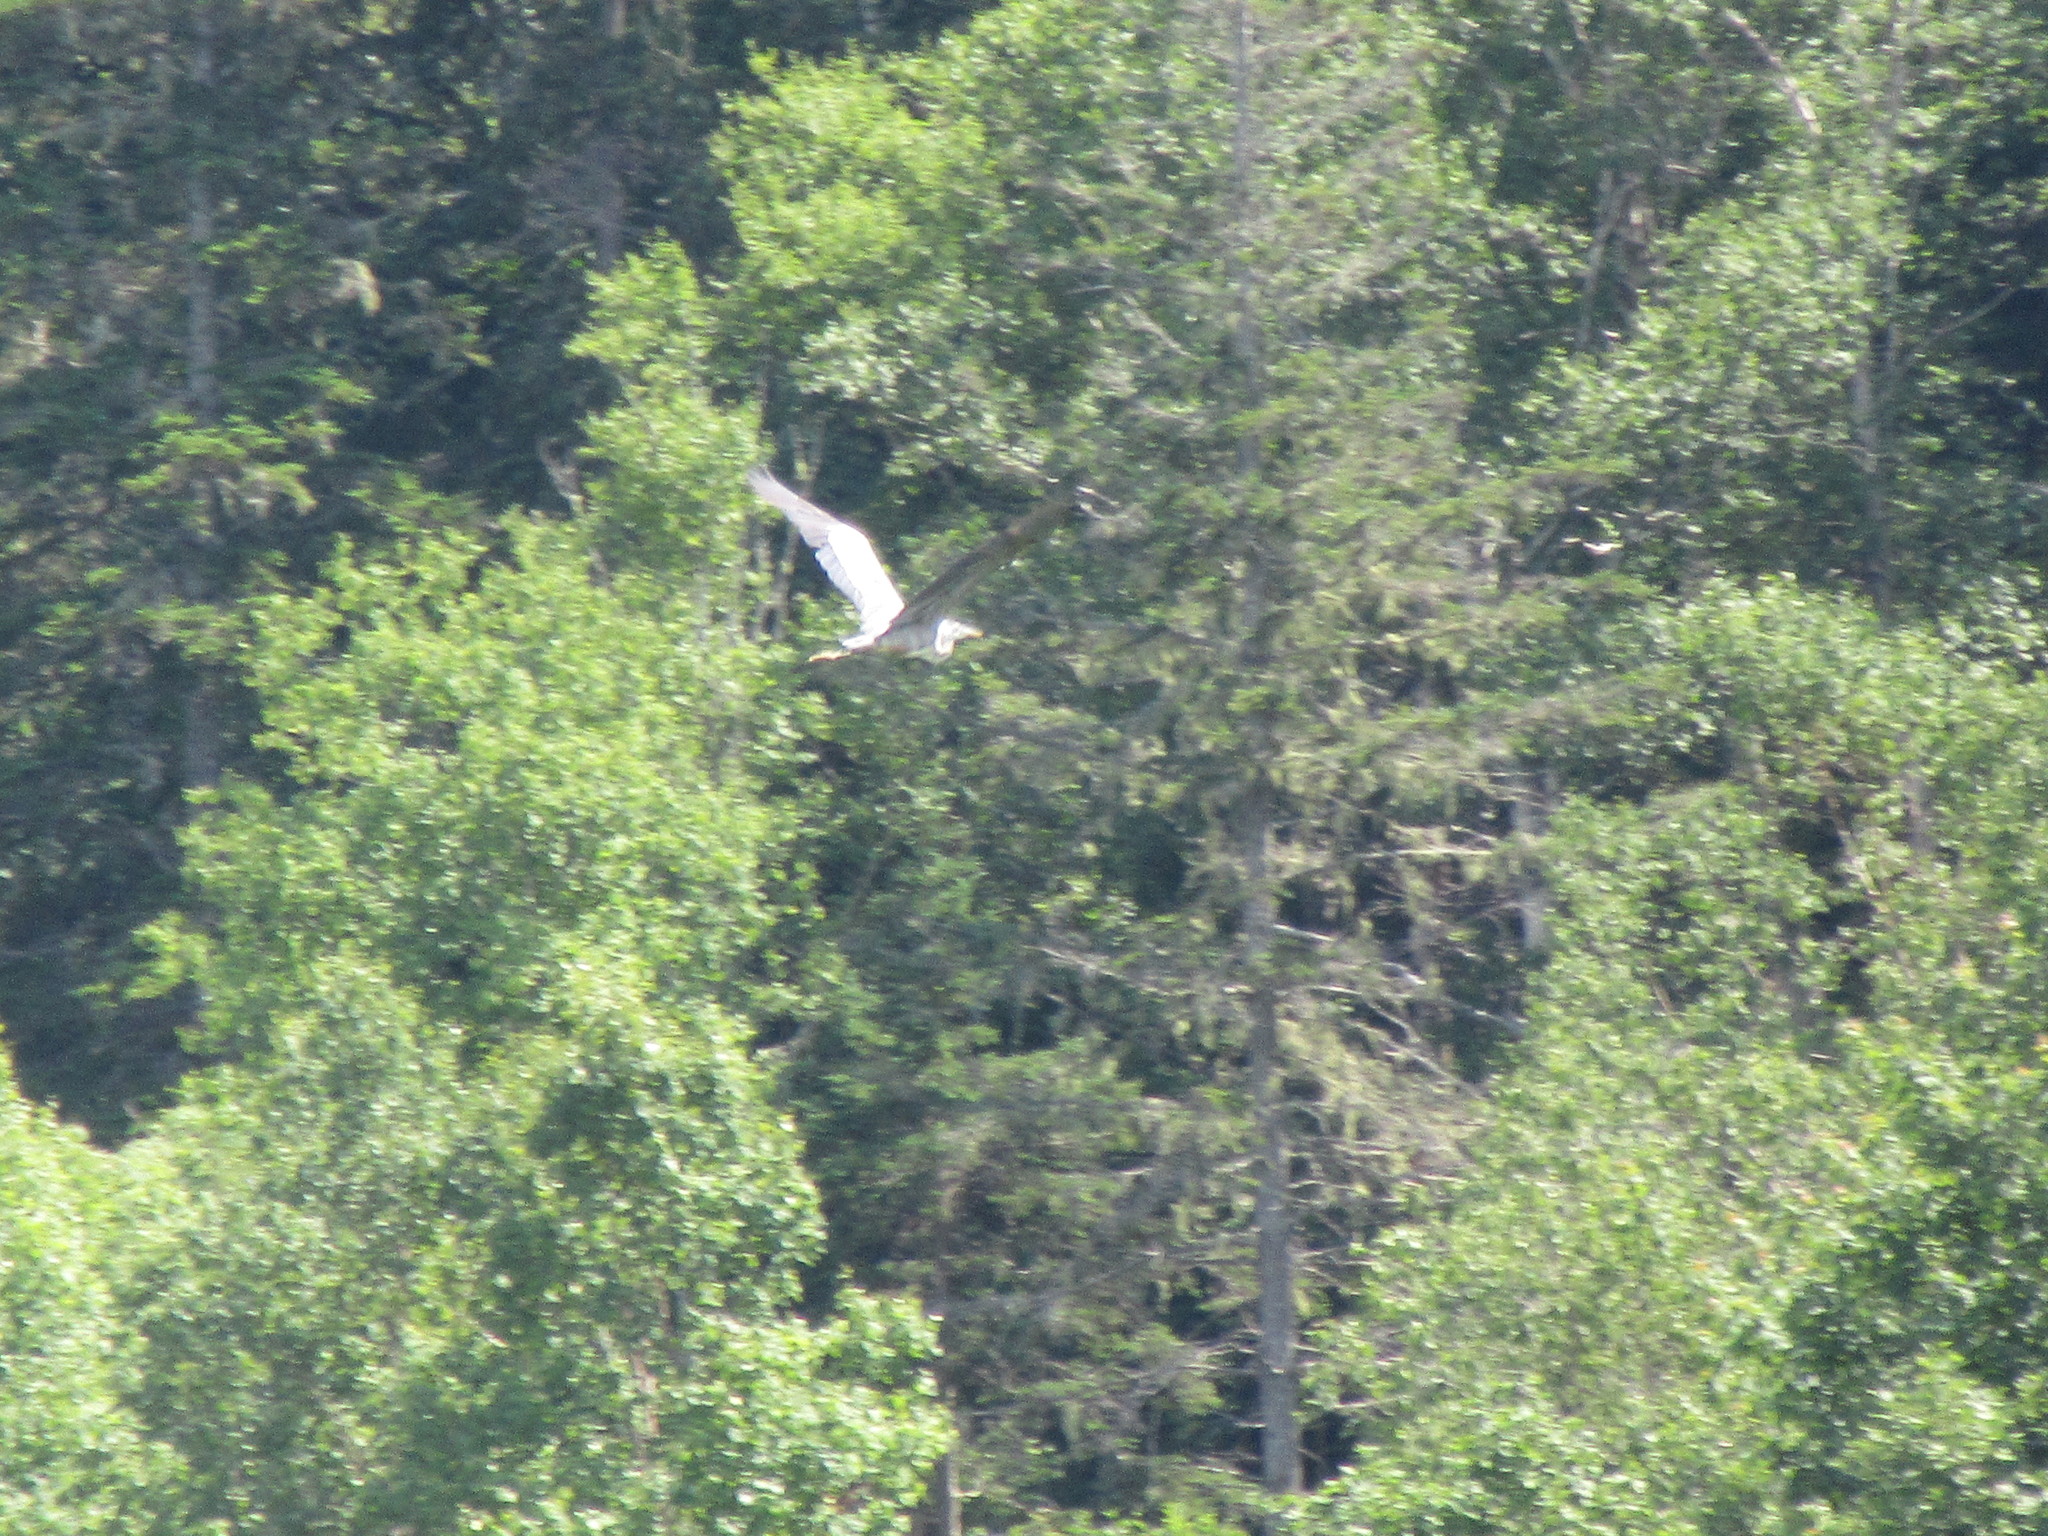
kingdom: Animalia
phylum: Chordata
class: Aves
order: Pelecaniformes
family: Ardeidae
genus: Ardea
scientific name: Ardea herodias
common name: Great blue heron
